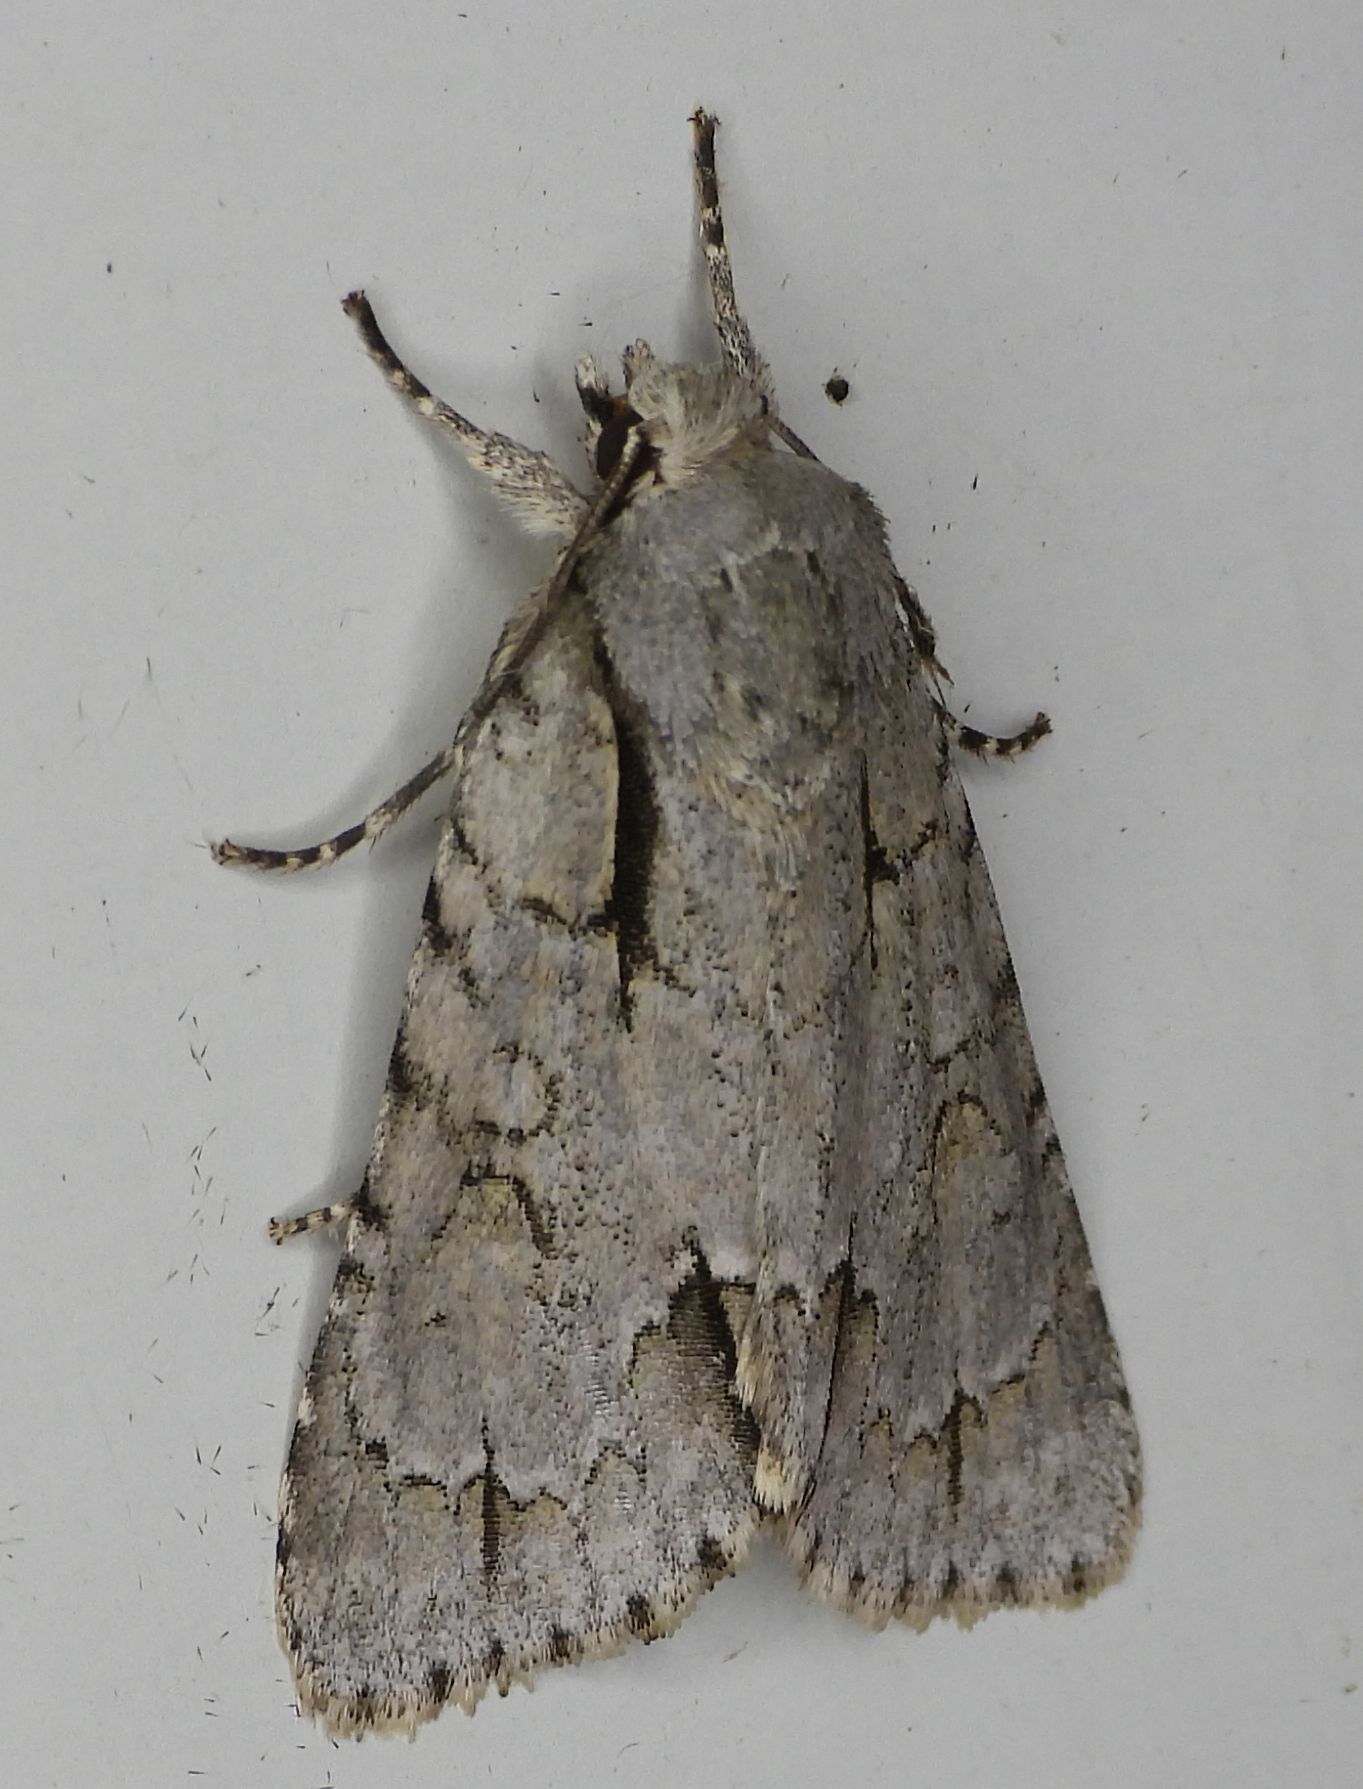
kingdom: Animalia
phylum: Arthropoda
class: Insecta
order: Lepidoptera
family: Noctuidae
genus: Acronicta
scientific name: Acronicta interrupta
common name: Interrupted dagger
